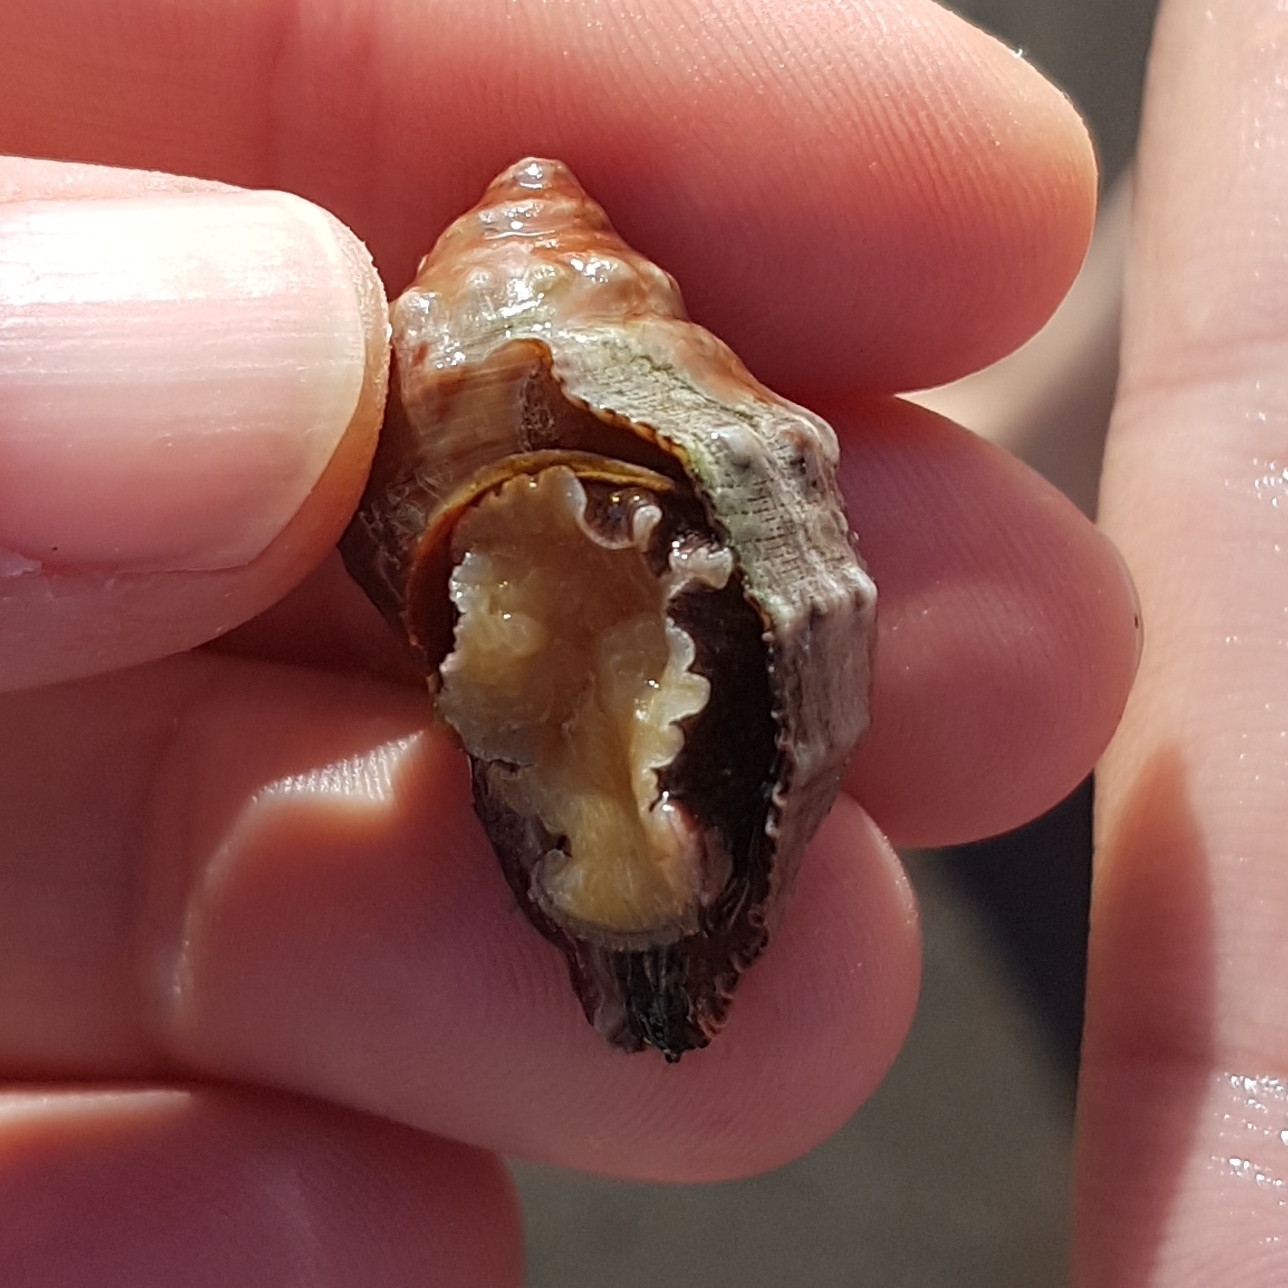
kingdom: Animalia
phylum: Mollusca
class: Gastropoda
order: Neogastropoda
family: Muricidae
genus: Stramonita
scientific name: Stramonita haemastoma
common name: Florida dog winkle
